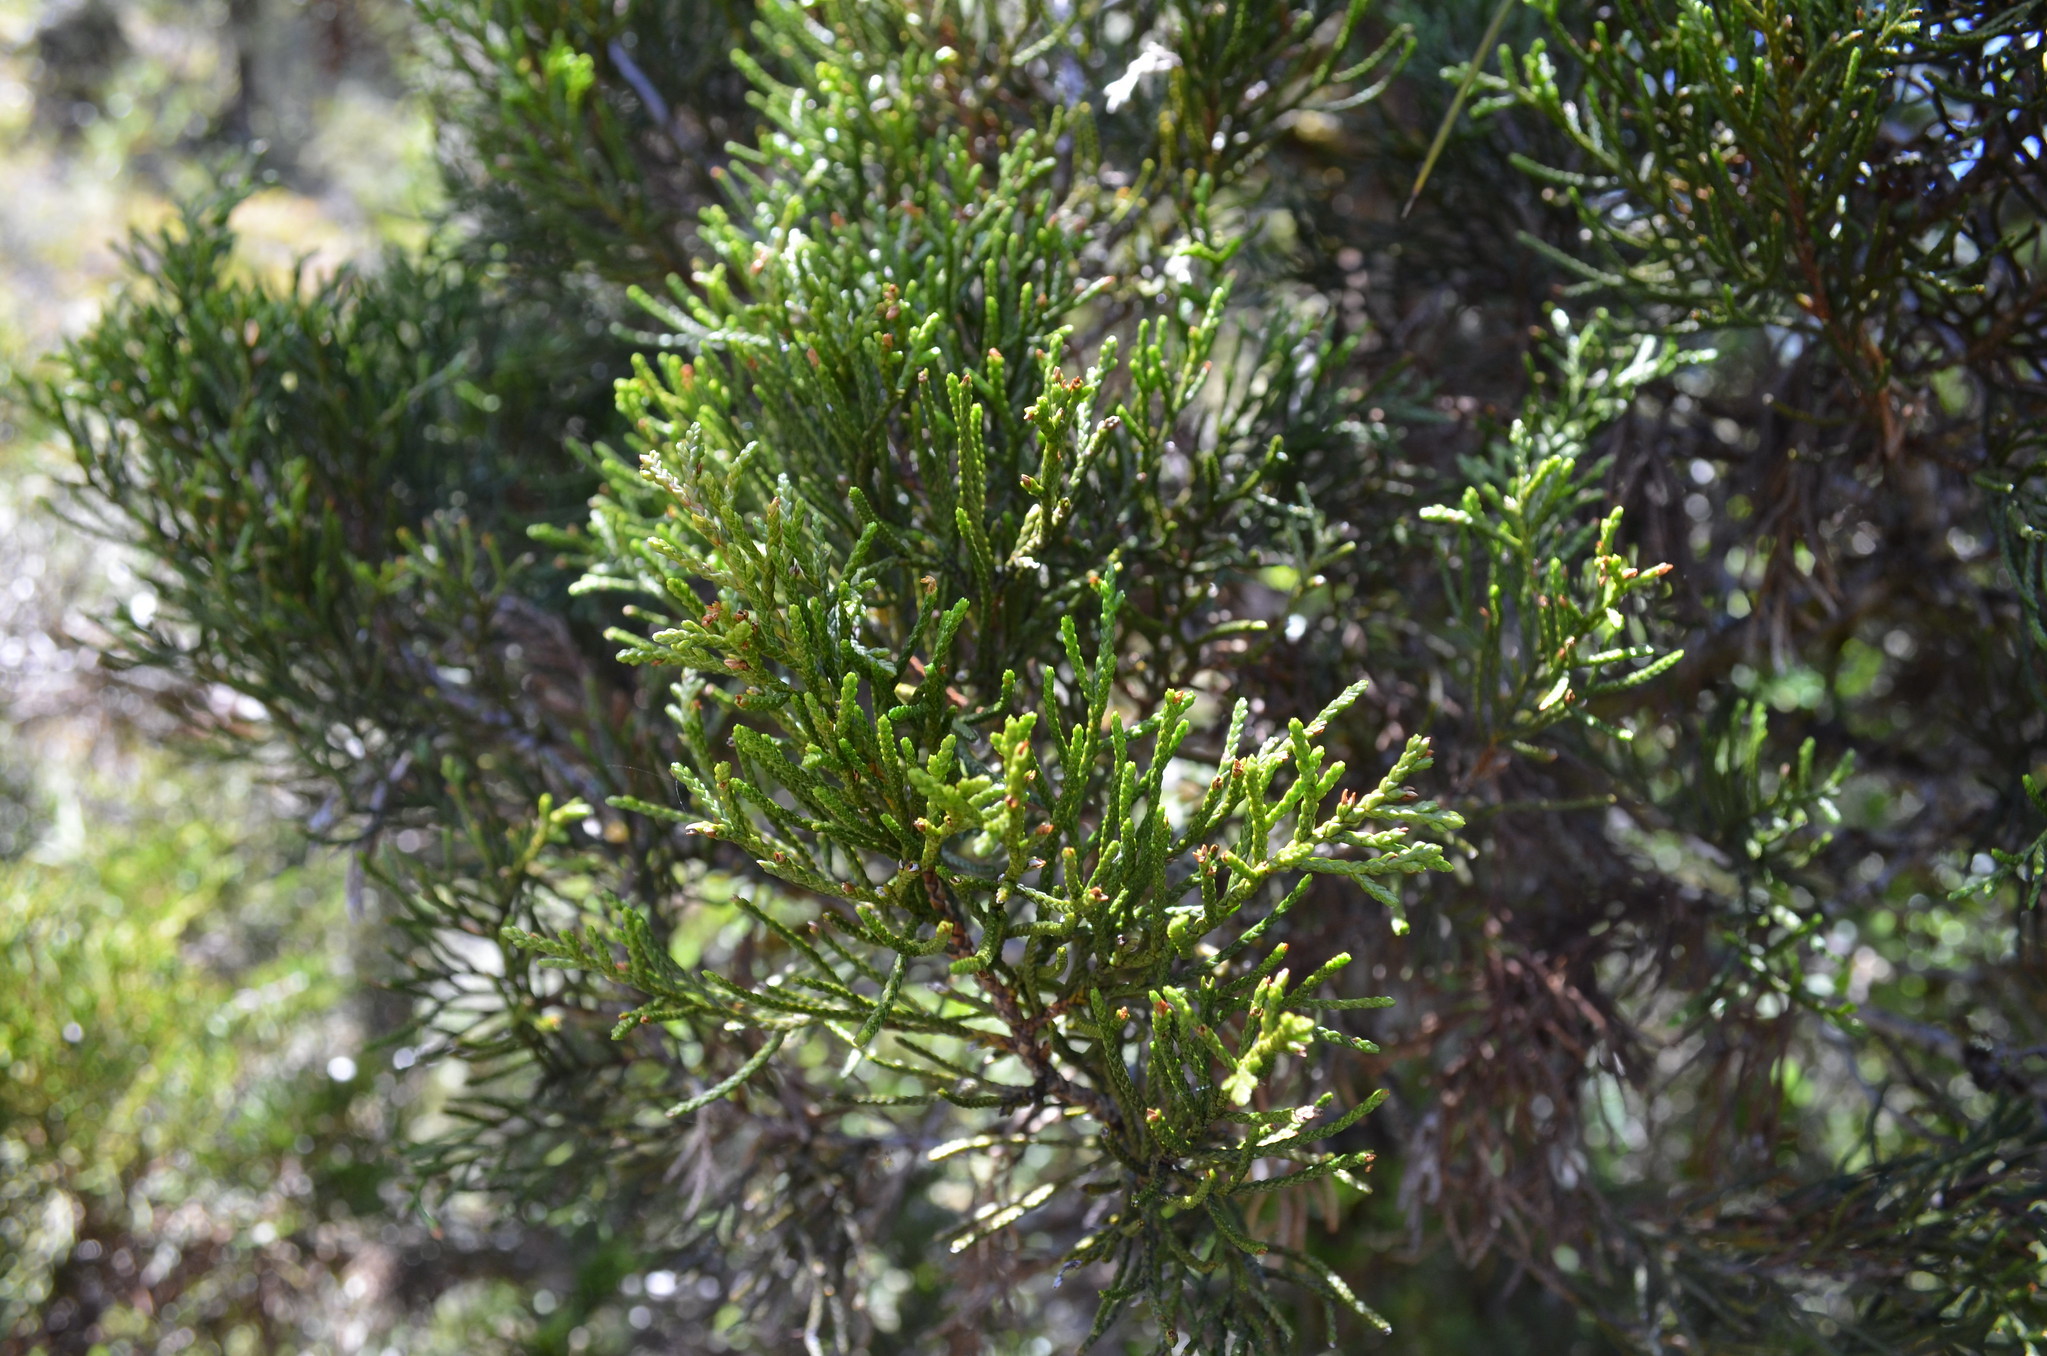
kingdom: Plantae
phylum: Tracheophyta
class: Pinopsida
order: Pinales
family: Podocarpaceae
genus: Halocarpus
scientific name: Halocarpus bidwillii
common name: Bog pine
